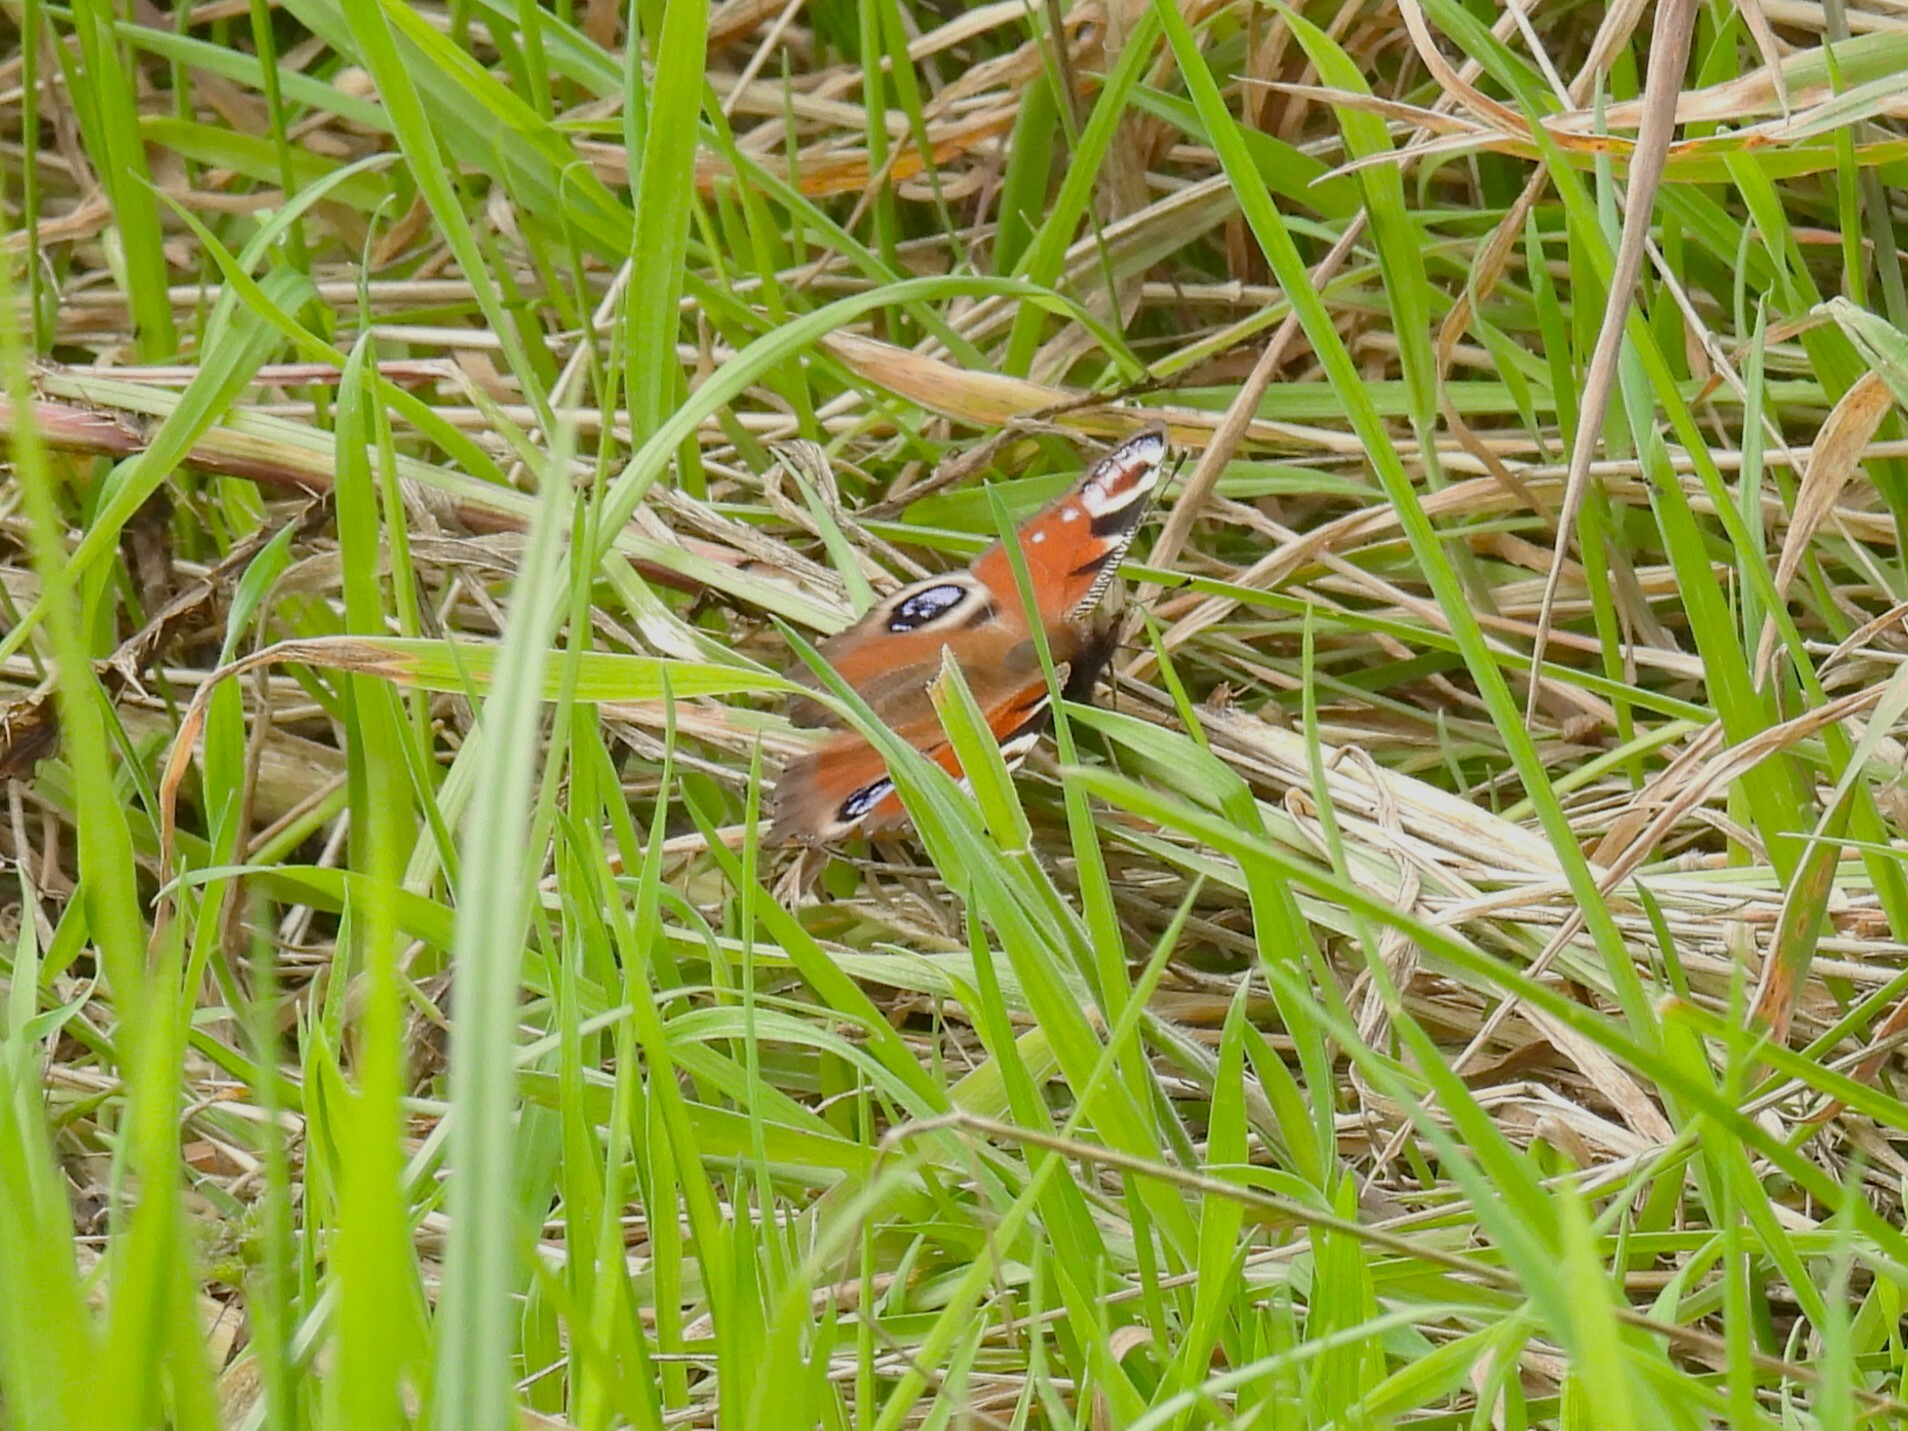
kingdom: Animalia
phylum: Arthropoda
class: Insecta
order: Lepidoptera
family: Nymphalidae
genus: Aglais
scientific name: Aglais io
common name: Peacock
